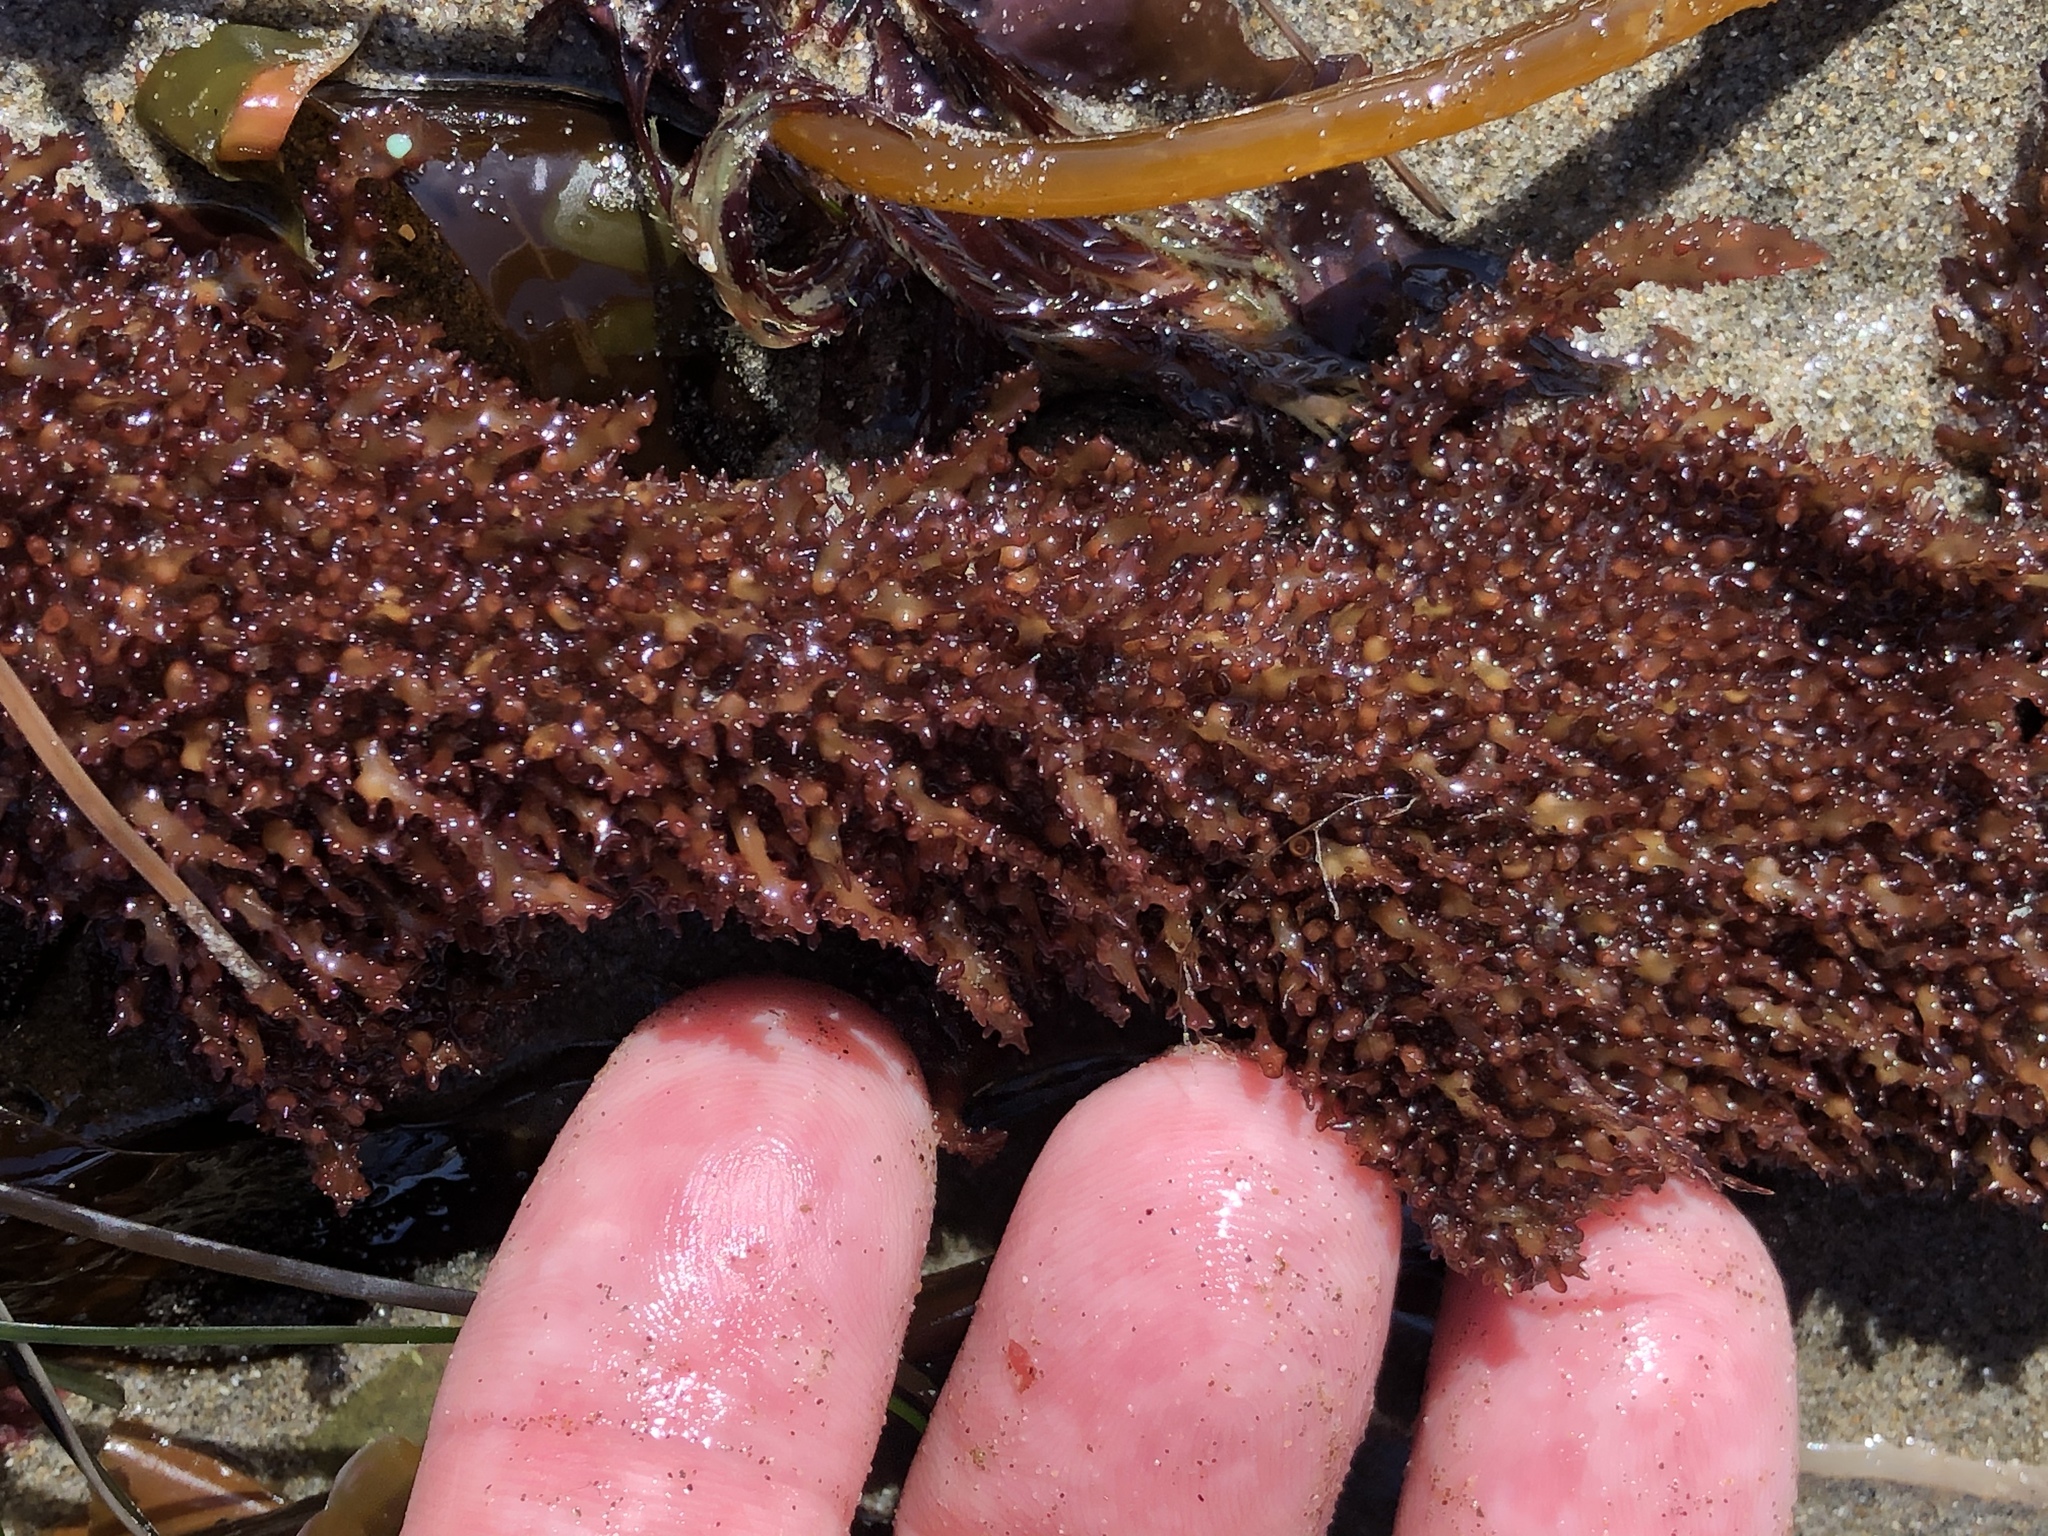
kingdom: Plantae
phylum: Rhodophyta
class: Florideophyceae
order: Gigartinales
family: Gigartinaceae
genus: Chondracanthus
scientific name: Chondracanthus exasperatus
